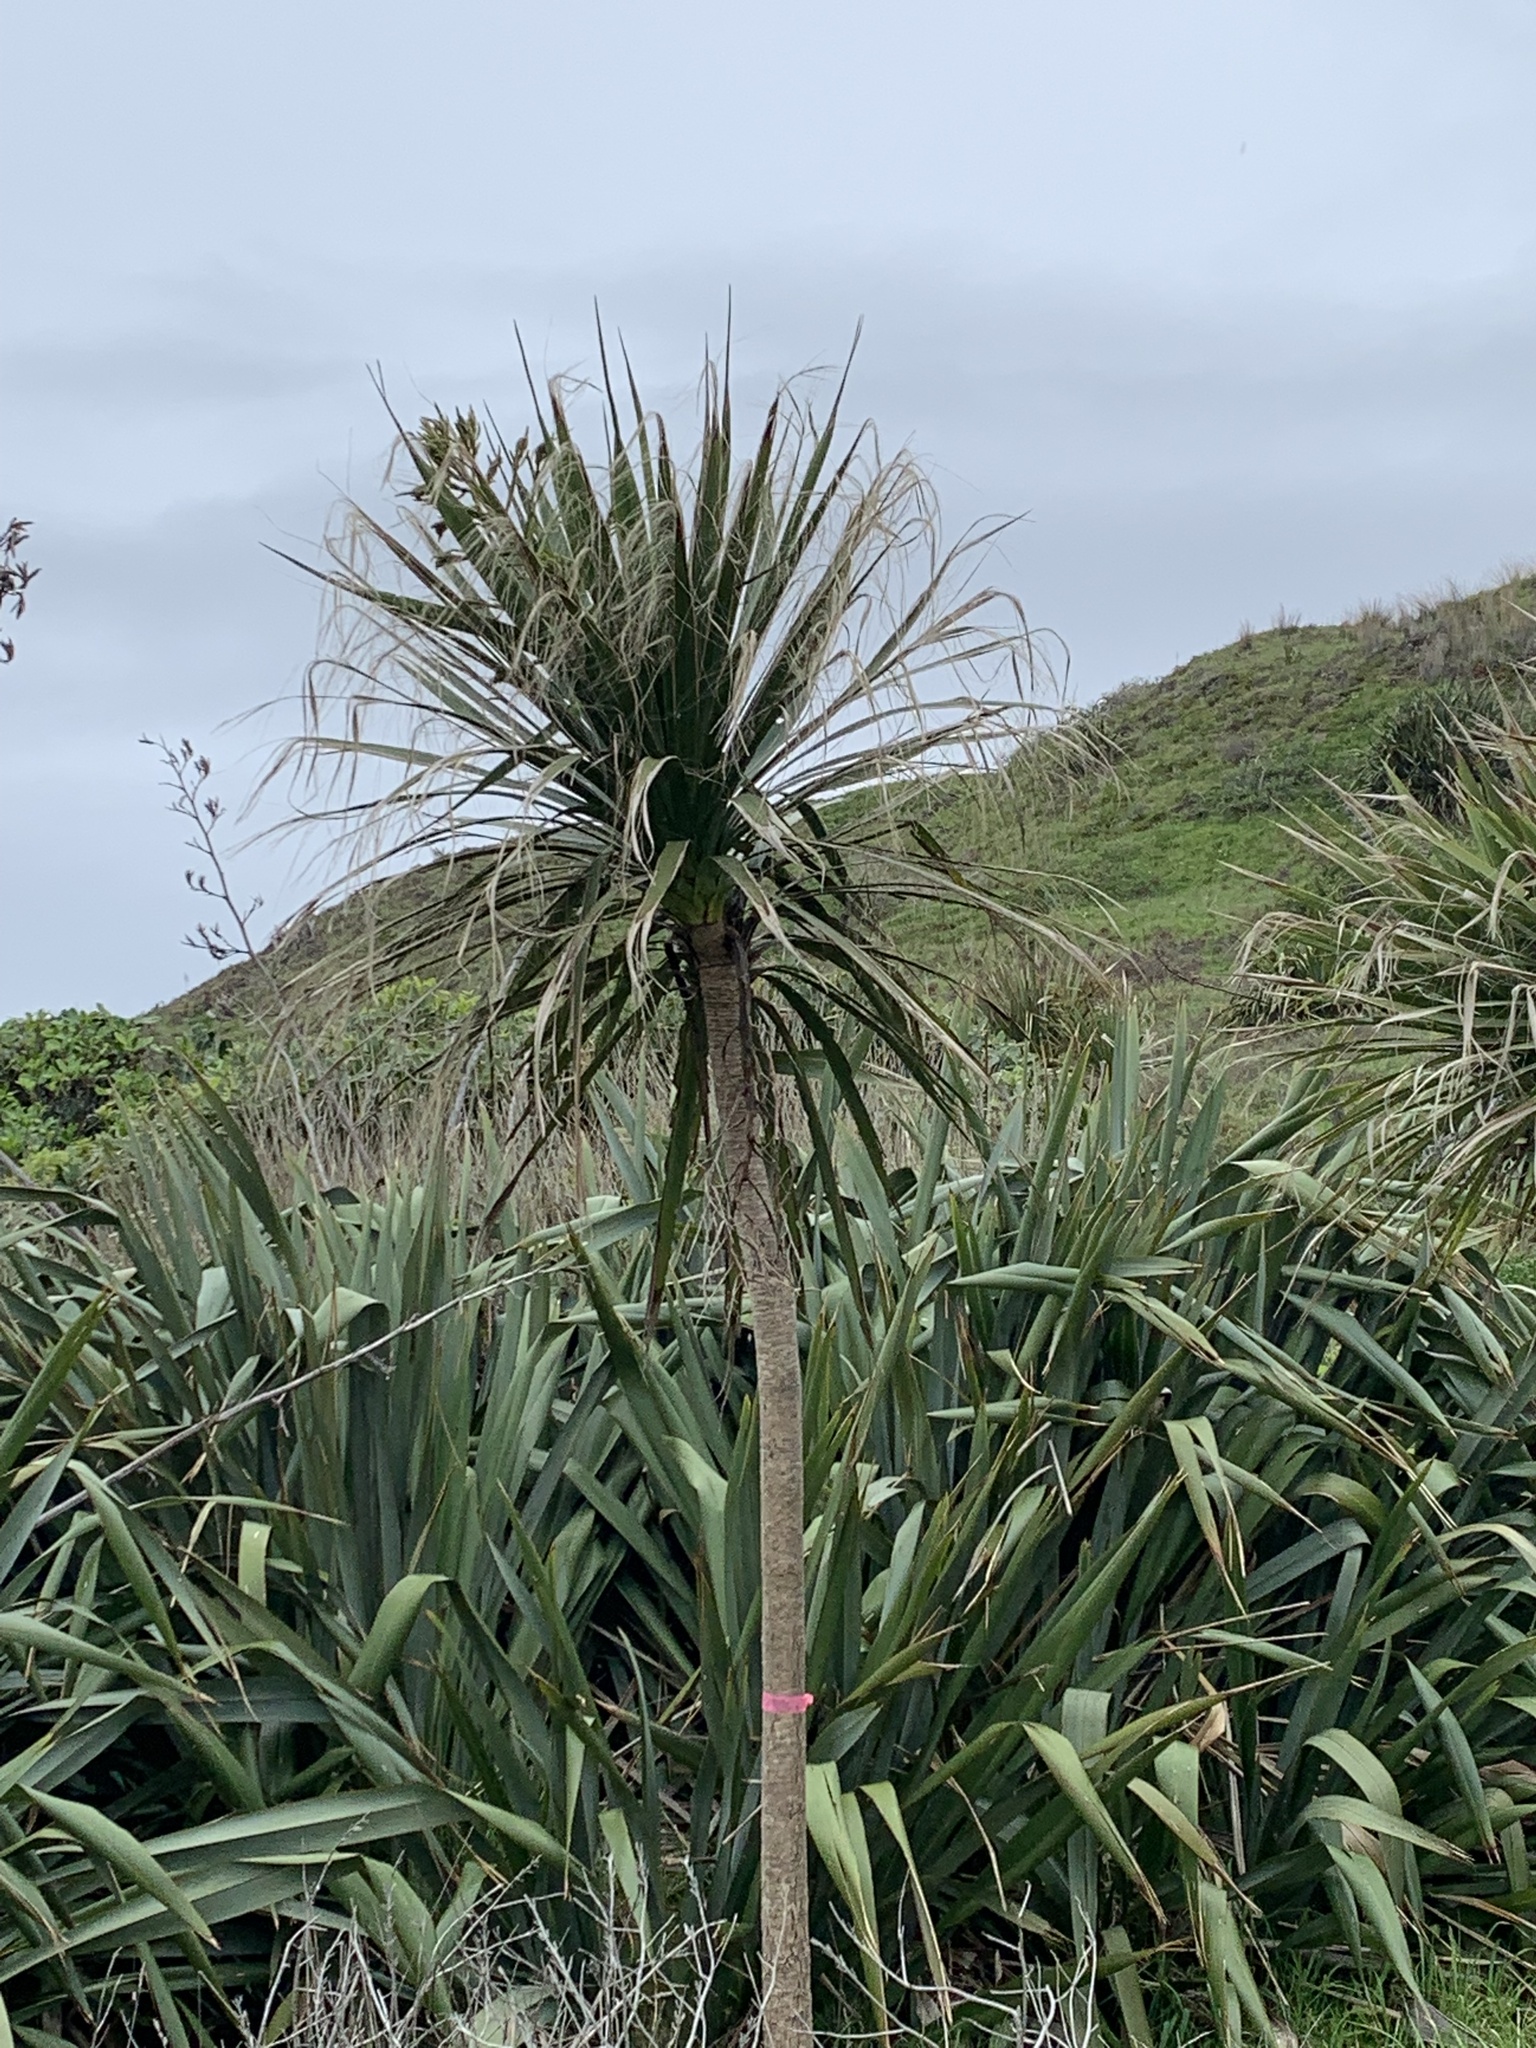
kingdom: Plantae
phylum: Tracheophyta
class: Liliopsida
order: Asparagales
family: Asparagaceae
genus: Cordyline
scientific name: Cordyline australis
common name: Cabbage-palm
